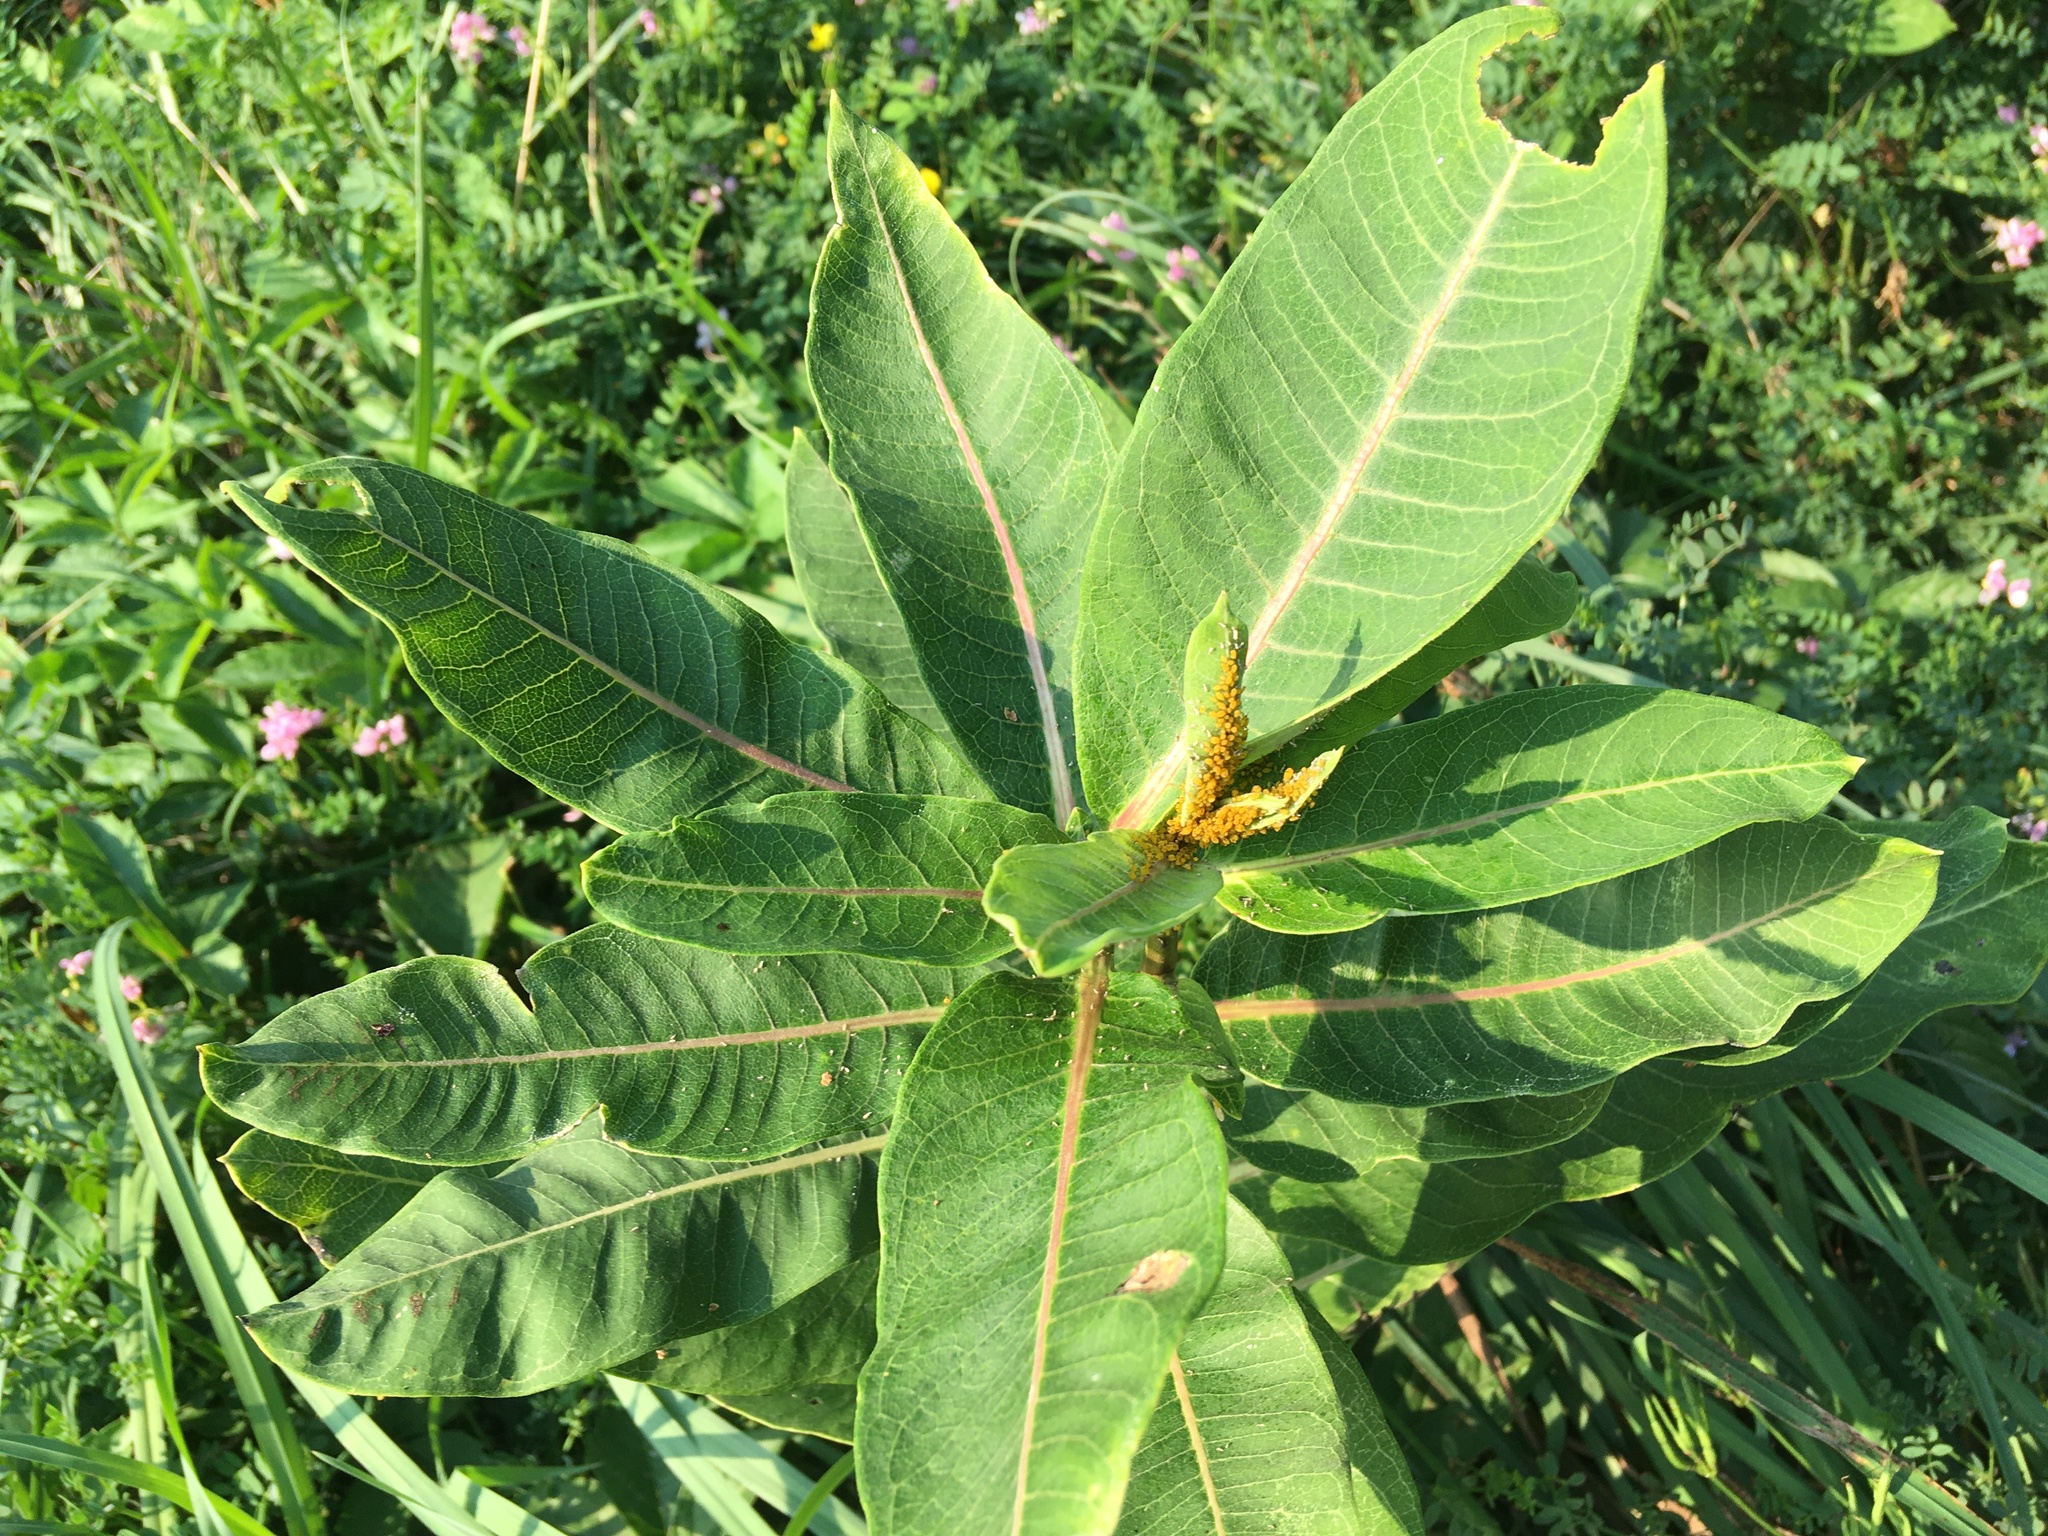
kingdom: Plantae
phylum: Tracheophyta
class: Magnoliopsida
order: Gentianales
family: Apocynaceae
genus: Asclepias
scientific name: Asclepias syriaca
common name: Common milkweed
